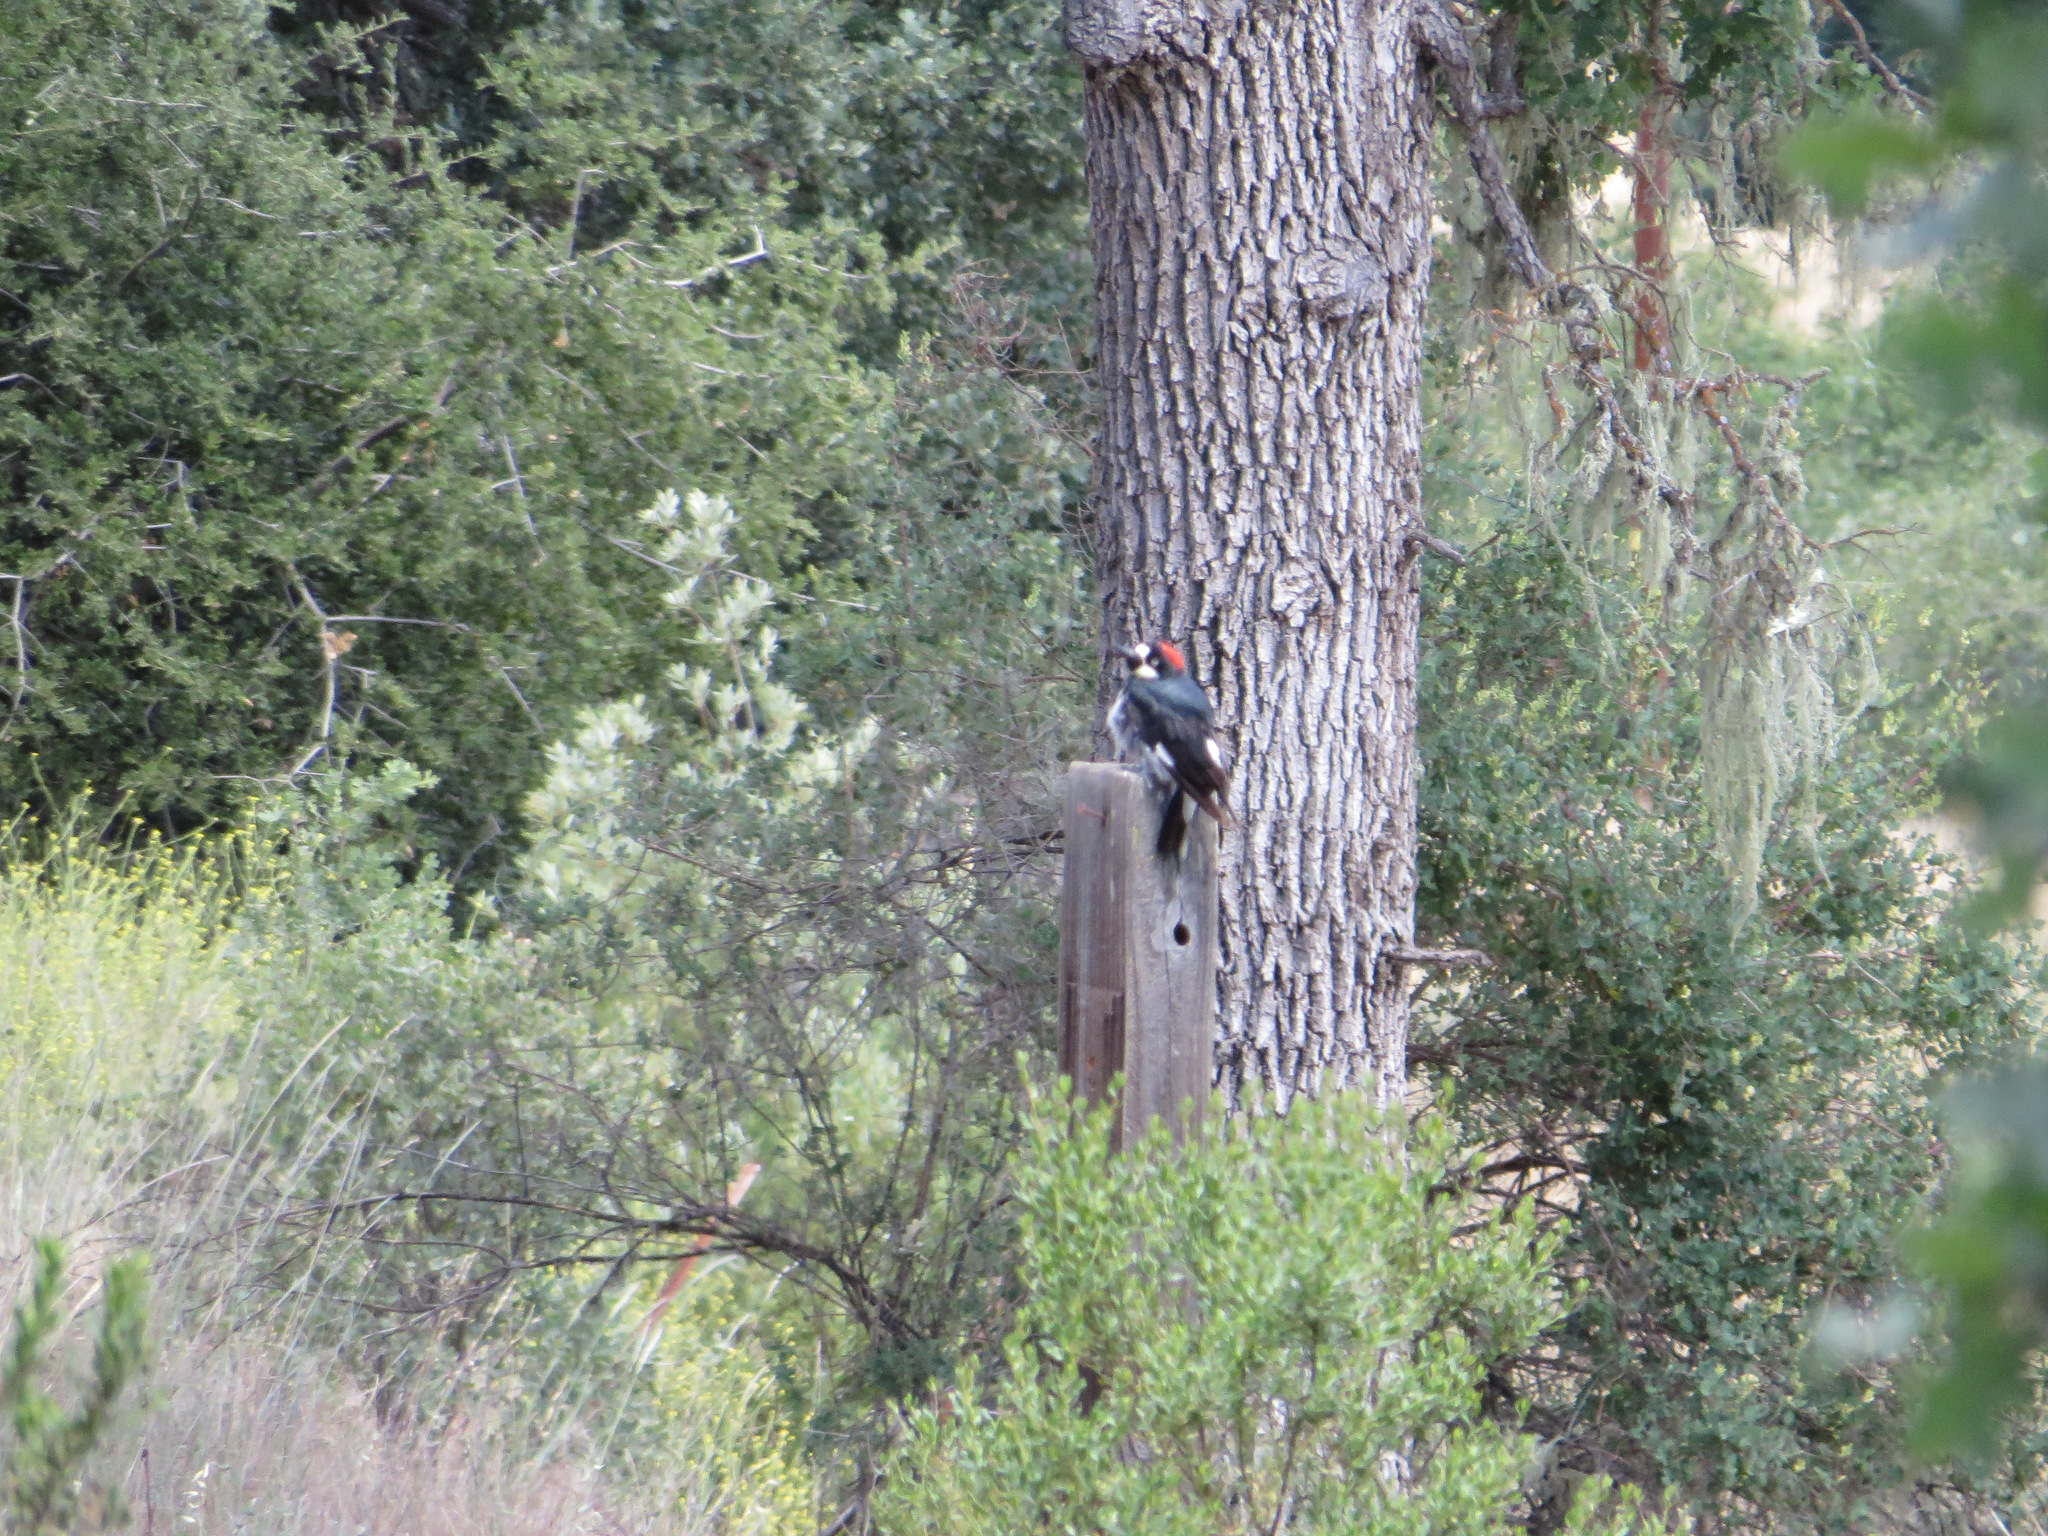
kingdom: Animalia
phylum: Chordata
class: Aves
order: Piciformes
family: Picidae
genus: Melanerpes
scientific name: Melanerpes formicivorus
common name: Acorn woodpecker
